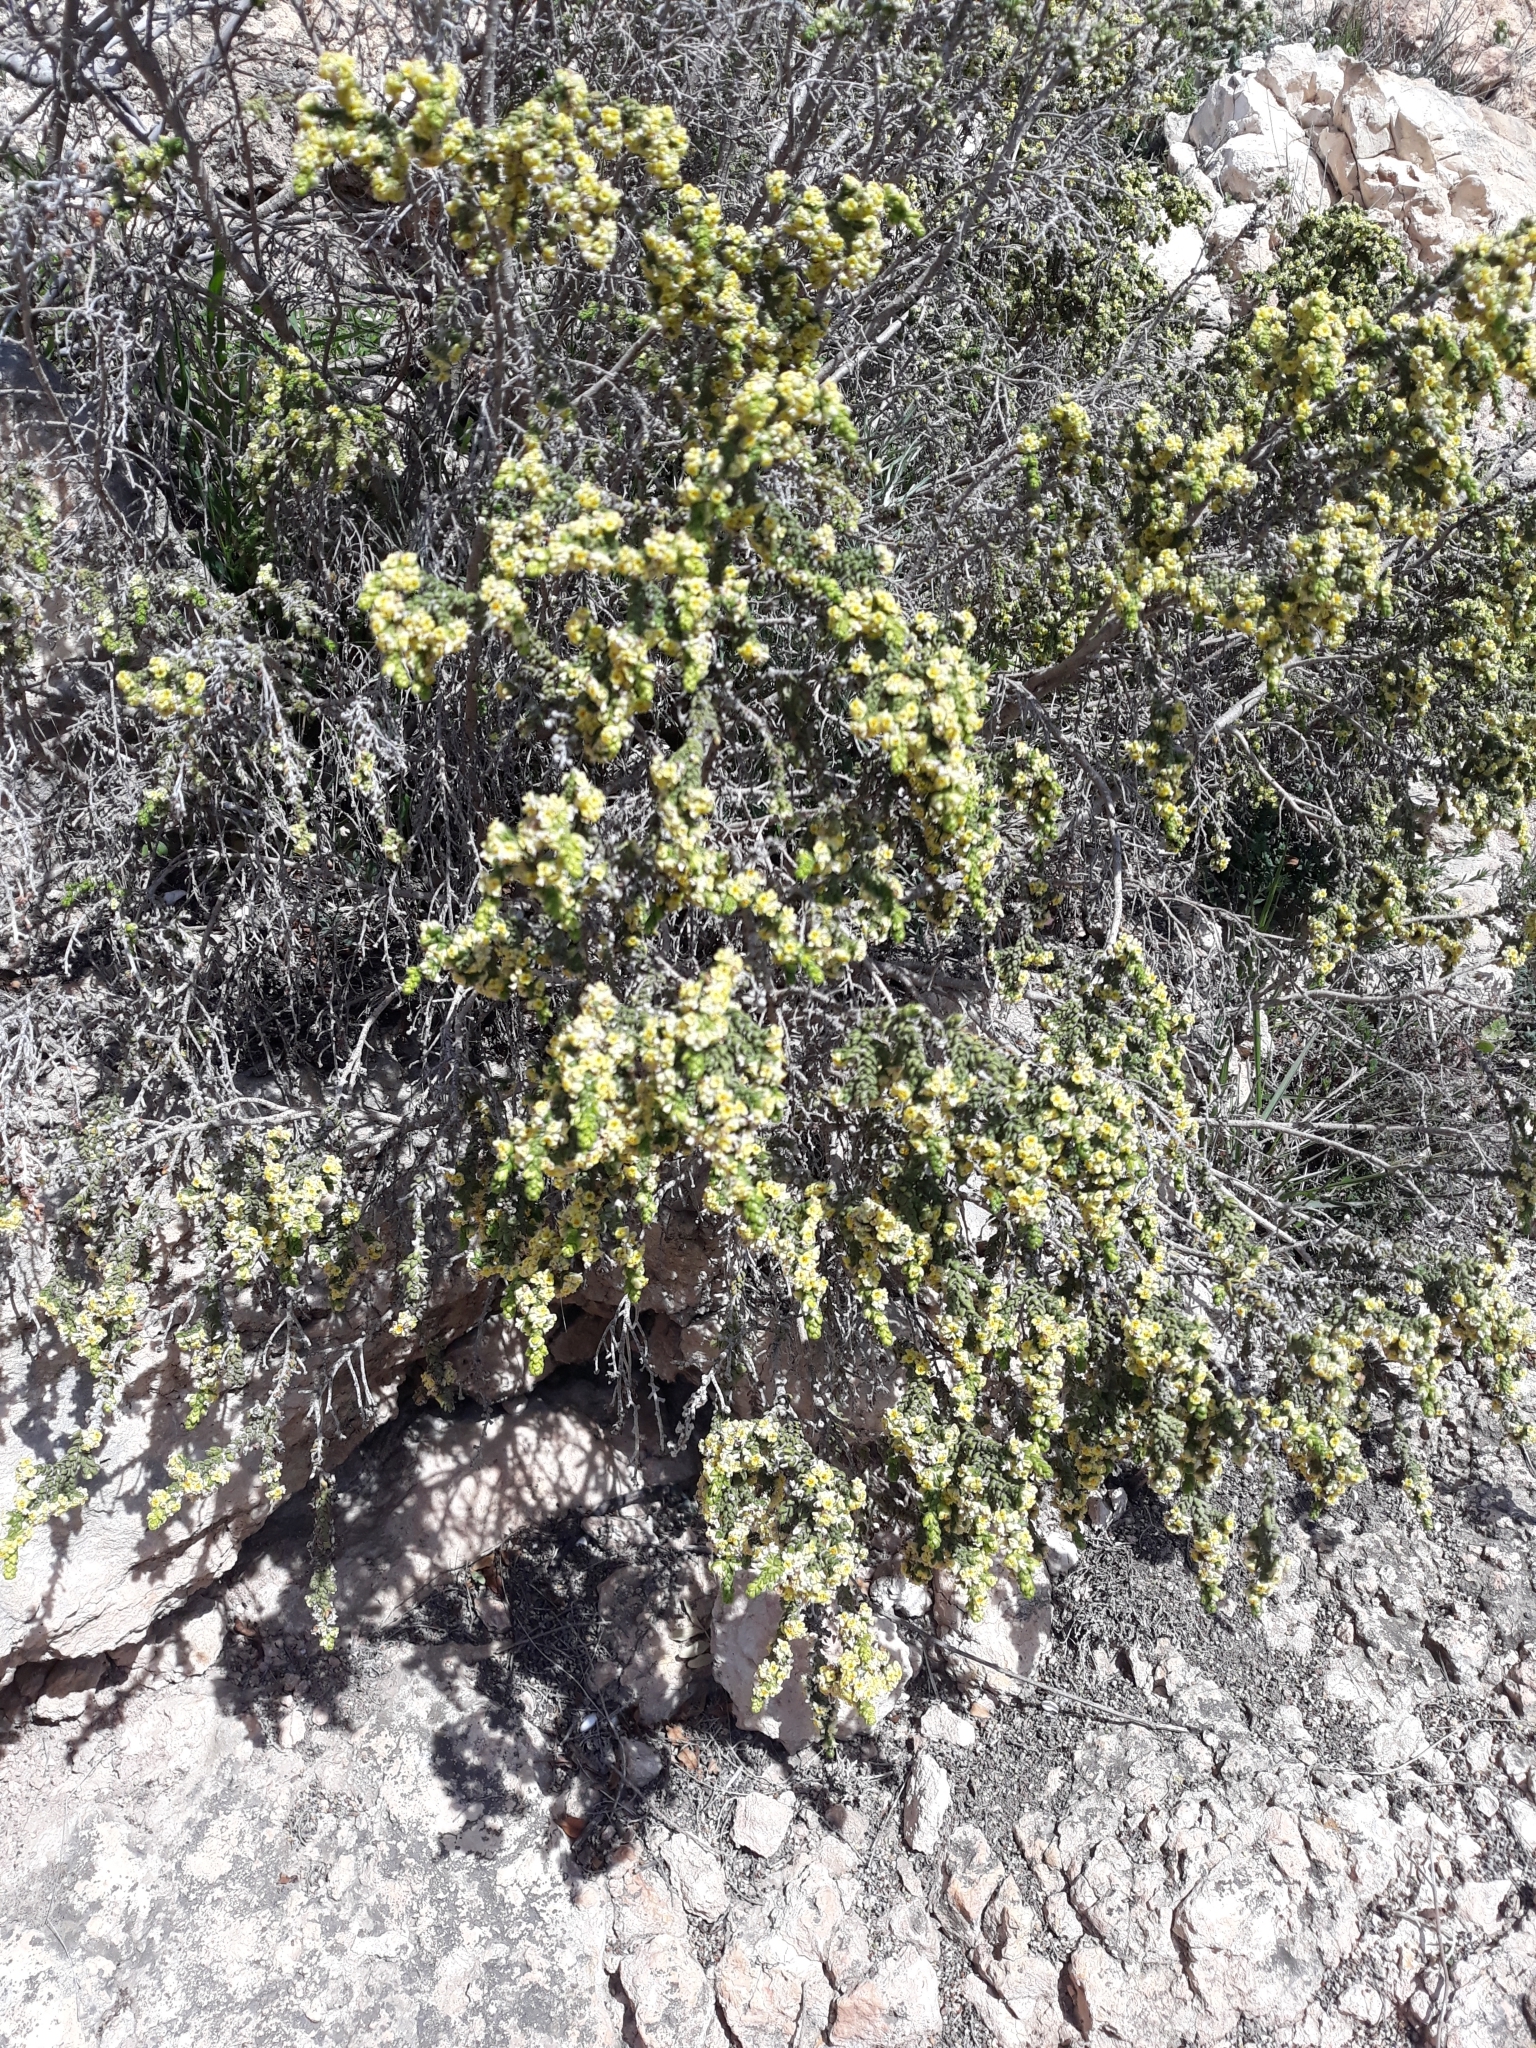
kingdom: Plantae
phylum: Tracheophyta
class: Magnoliopsida
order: Malvales
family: Thymelaeaceae
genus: Thymelaea
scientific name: Thymelaea hirsuta
